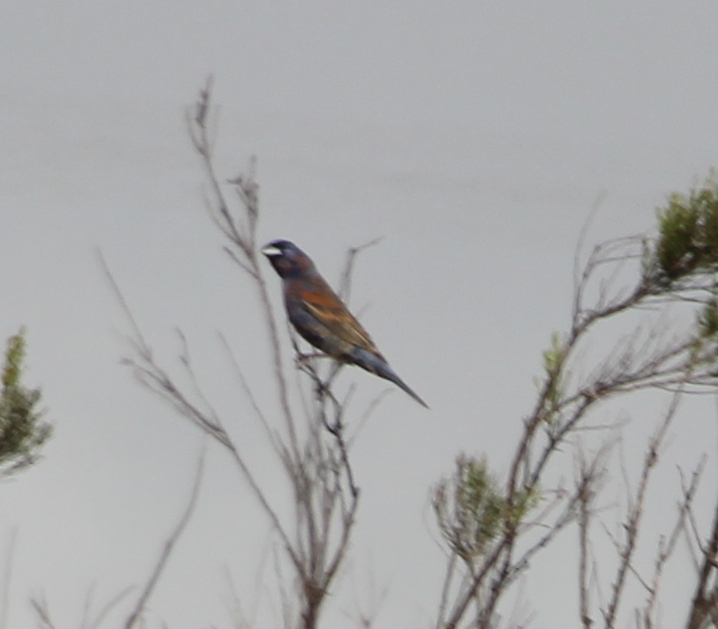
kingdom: Animalia
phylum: Chordata
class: Aves
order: Passeriformes
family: Cardinalidae
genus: Passerina
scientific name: Passerina caerulea
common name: Blue grosbeak
